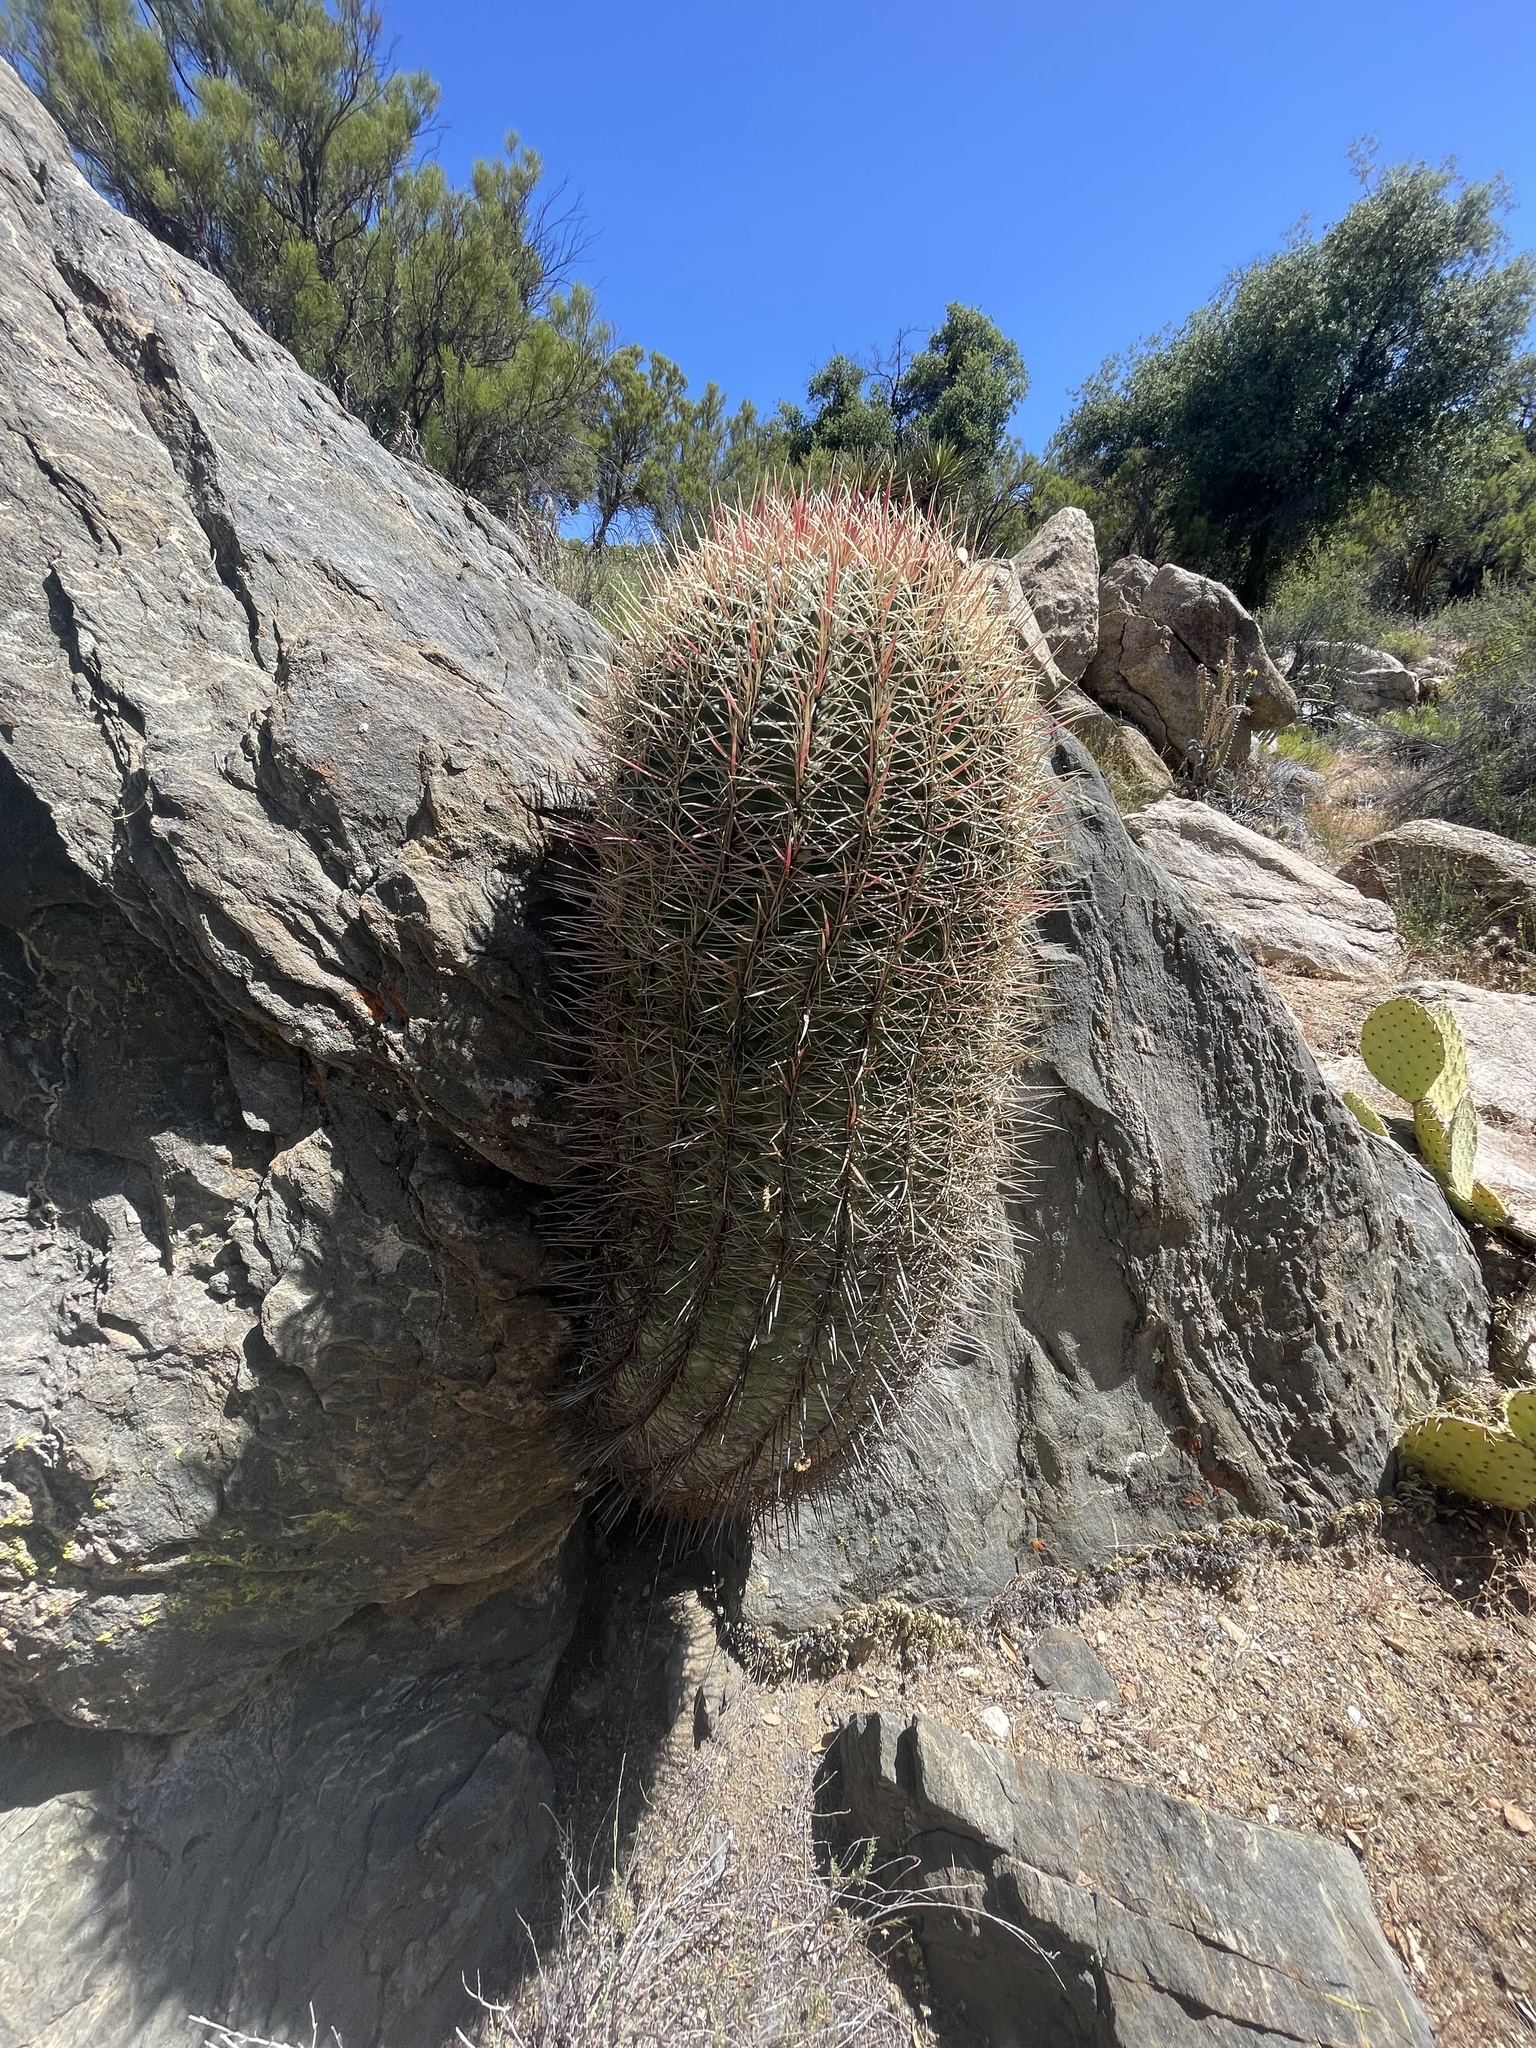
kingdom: Plantae
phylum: Tracheophyta
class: Magnoliopsida
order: Caryophyllales
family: Cactaceae
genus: Ferocactus
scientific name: Ferocactus cylindraceus
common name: California barrel cactus
